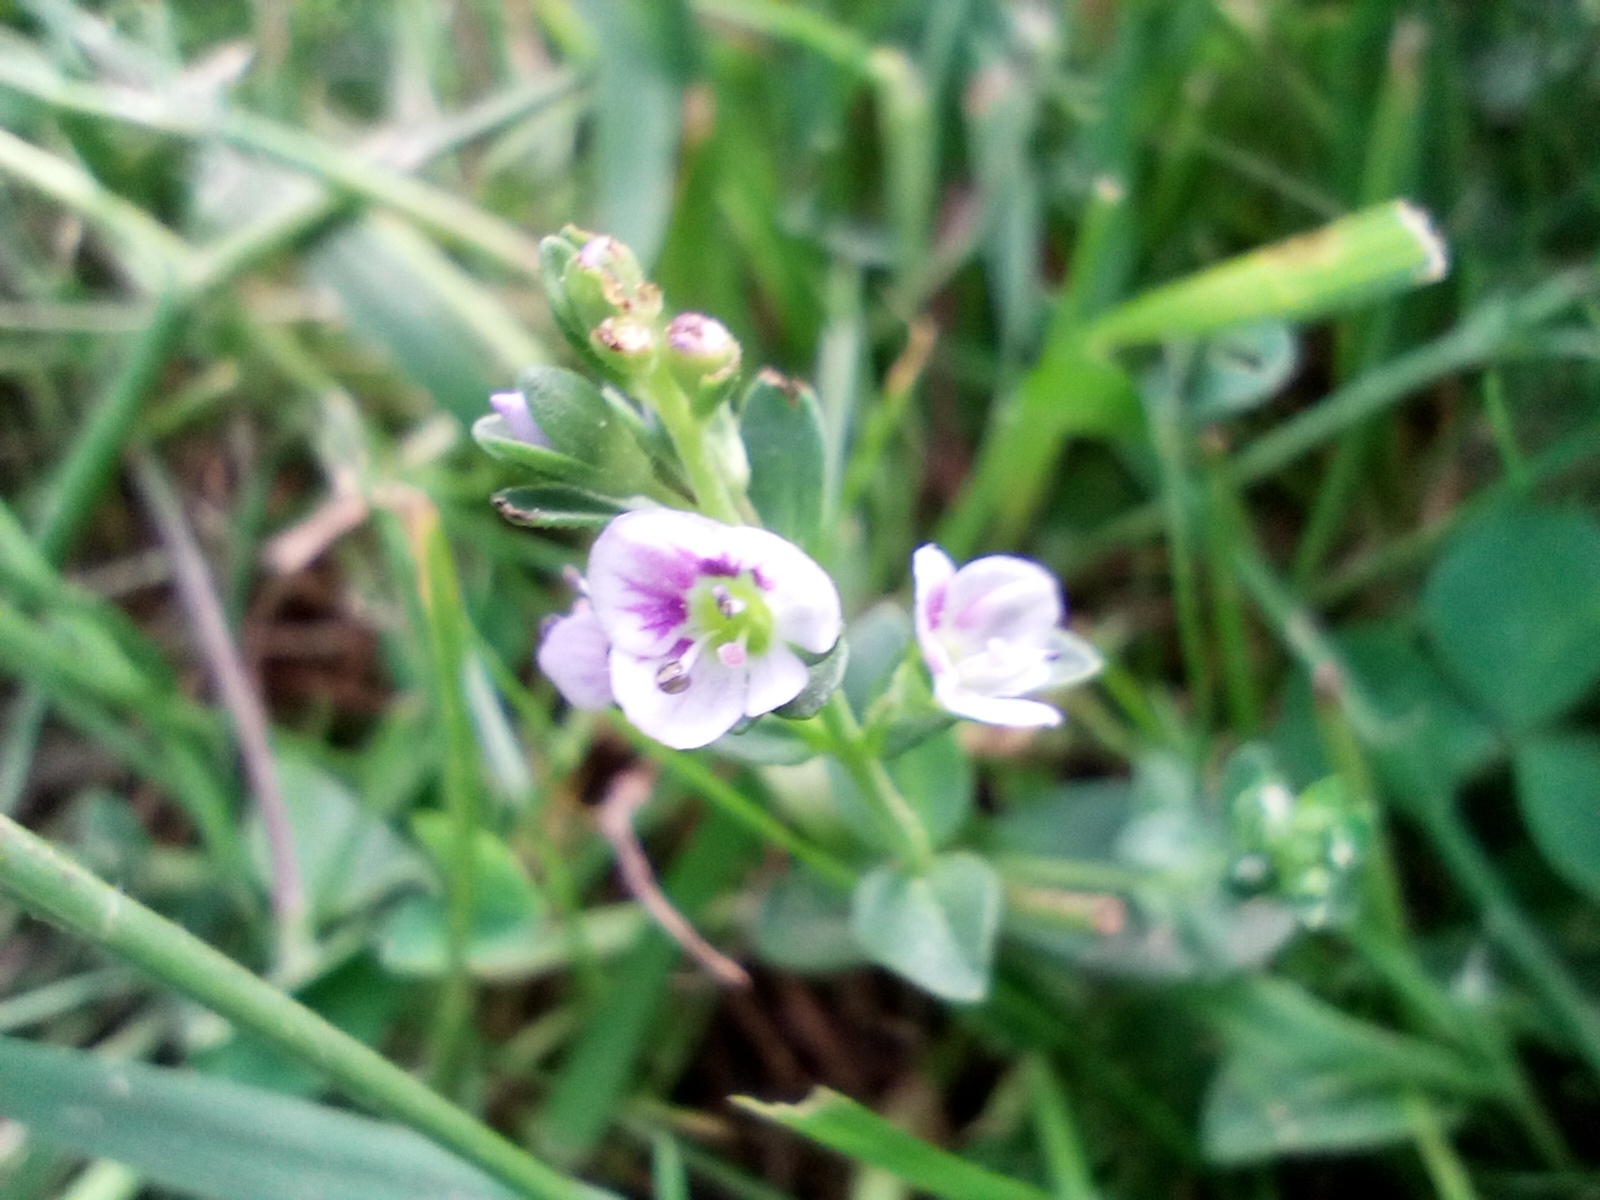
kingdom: Plantae
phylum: Tracheophyta
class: Magnoliopsida
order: Lamiales
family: Plantaginaceae
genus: Veronica
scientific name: Veronica serpyllifolia
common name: Thyme-leaved speedwell
